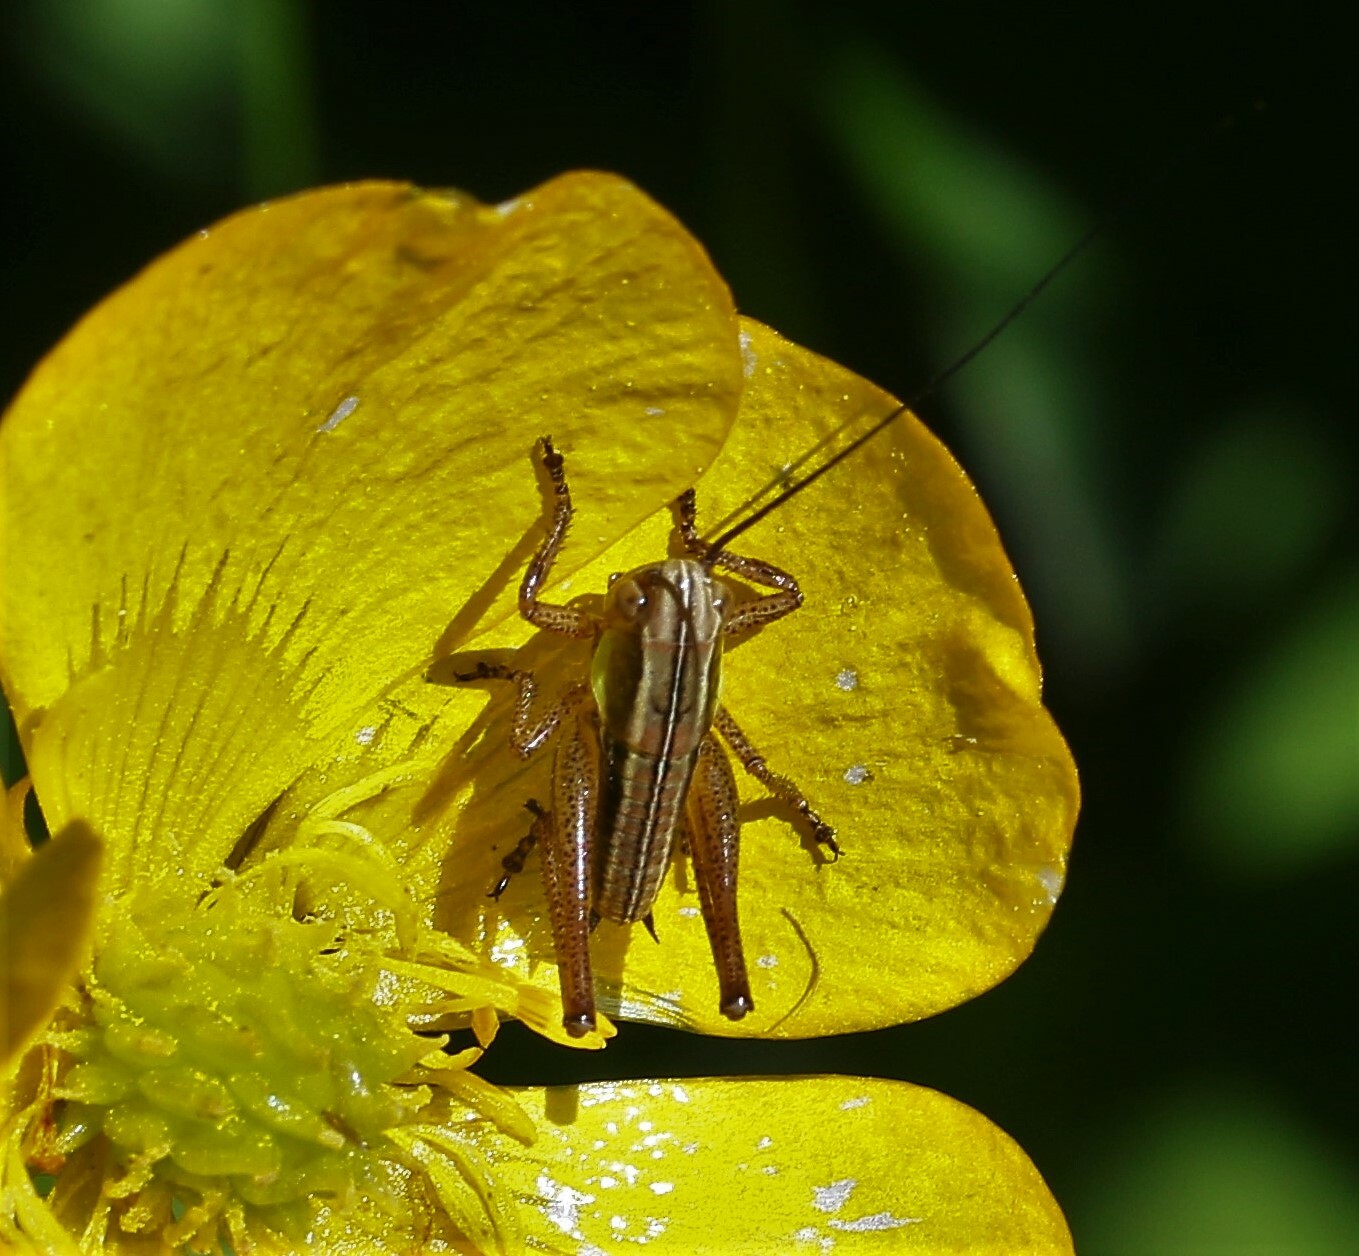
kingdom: Animalia
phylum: Arthropoda
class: Insecta
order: Orthoptera
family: Tettigoniidae
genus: Roeseliana
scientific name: Roeseliana roeselii
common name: Roesel's bush cricket
